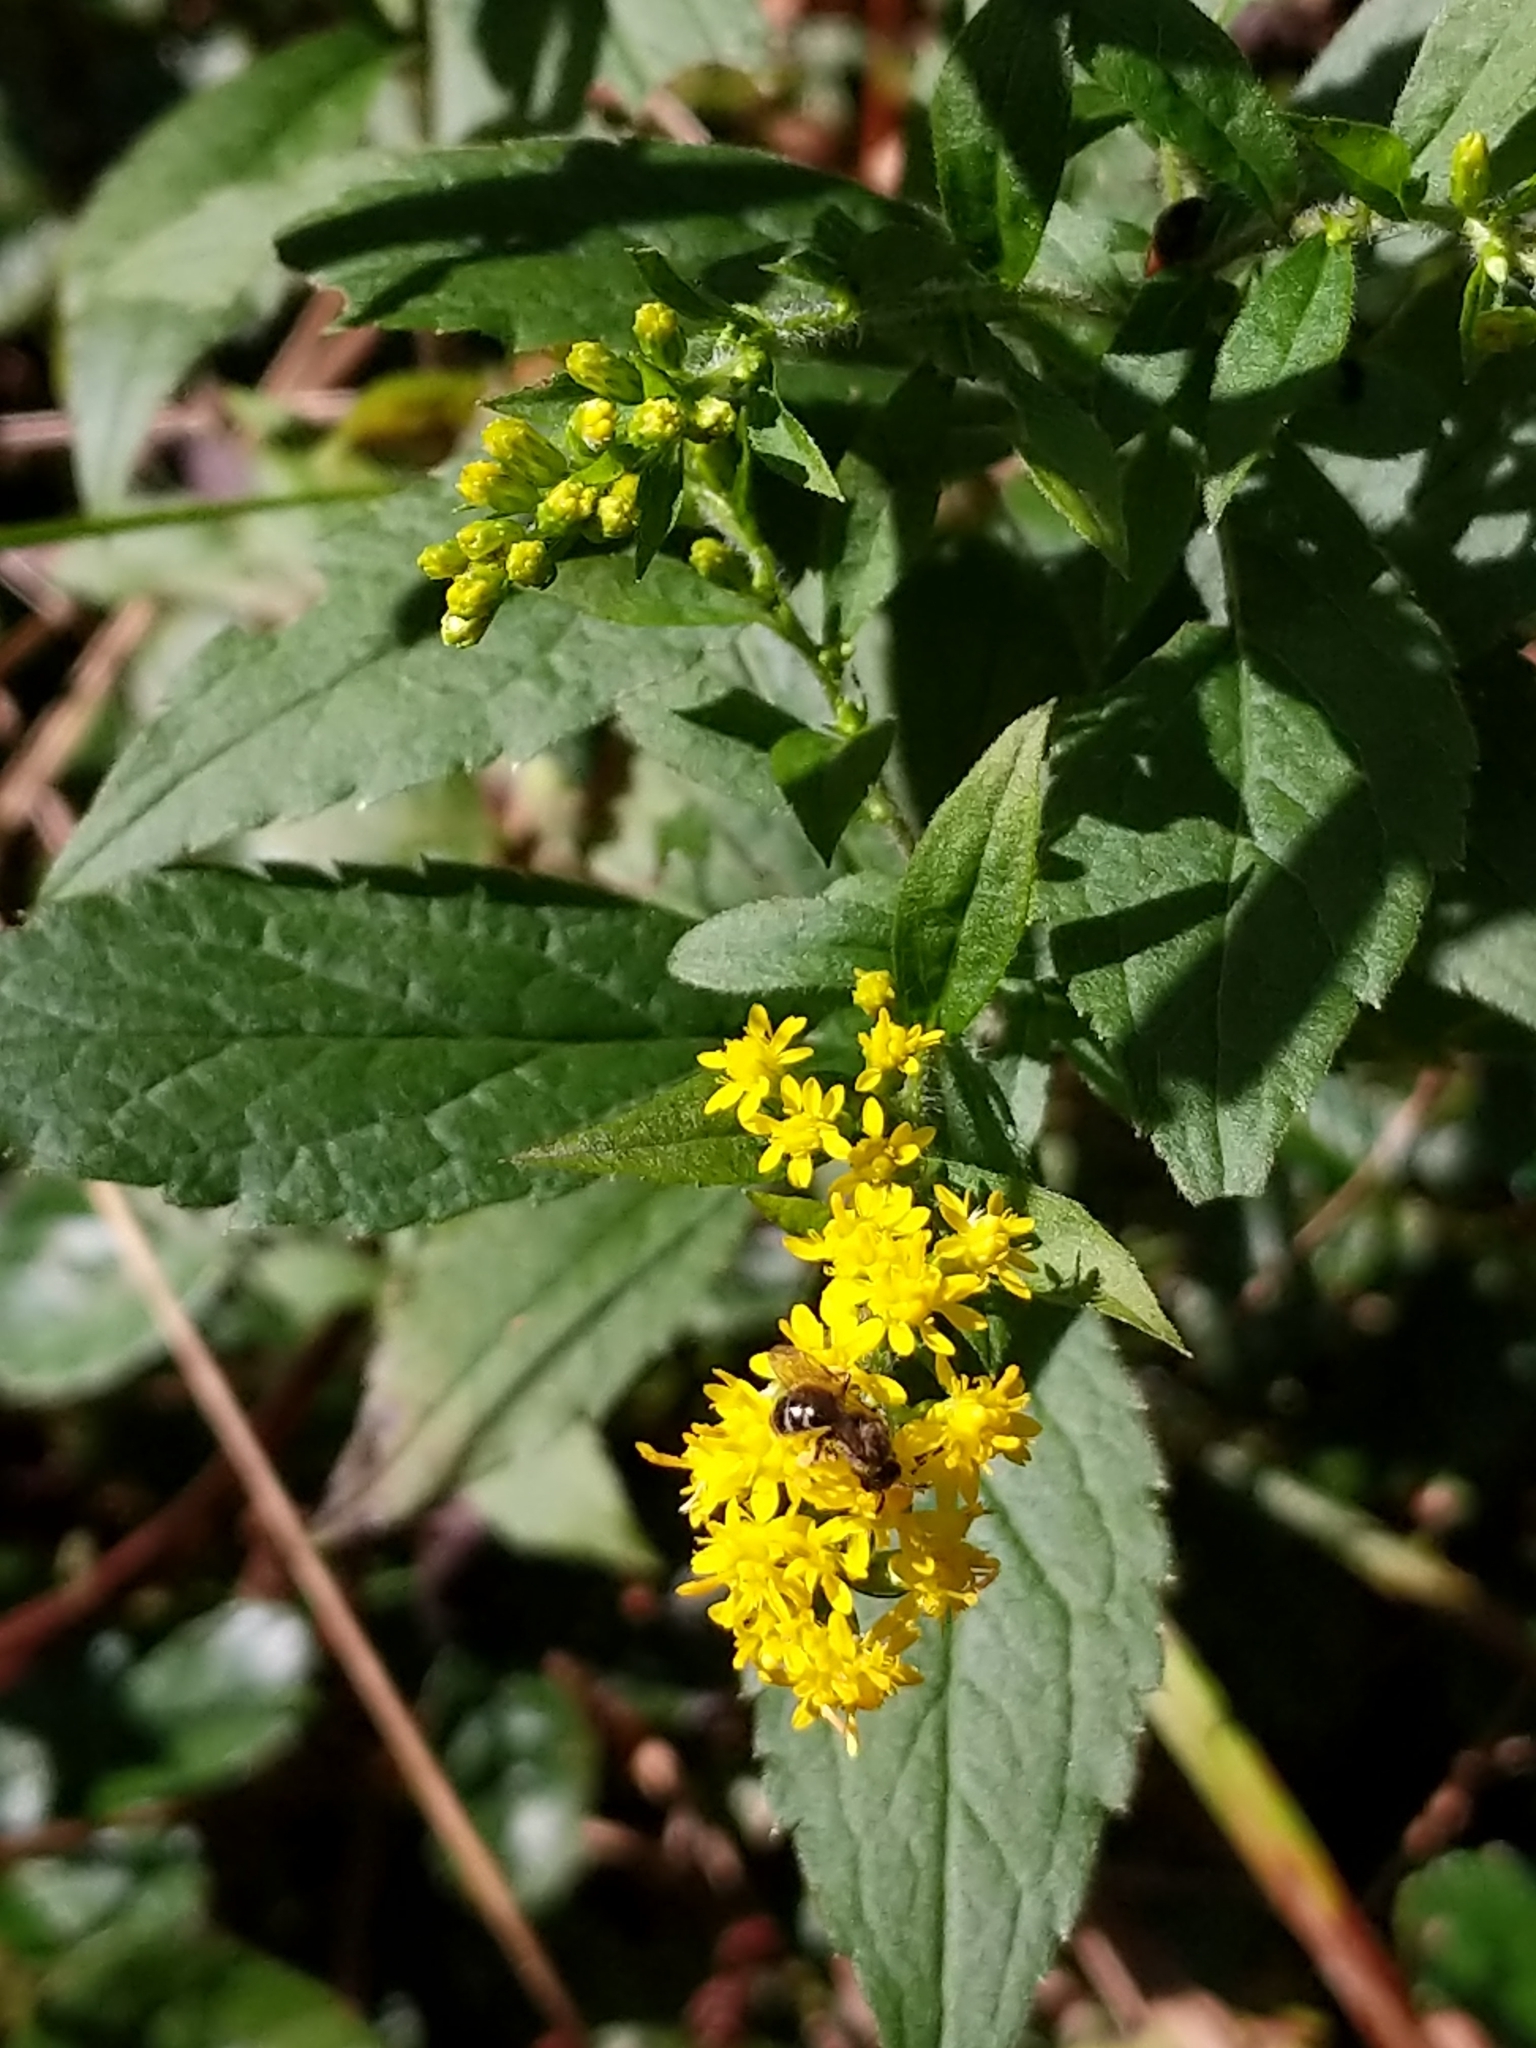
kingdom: Plantae
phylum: Tracheophyta
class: Magnoliopsida
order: Asterales
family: Asteraceae
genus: Solidago
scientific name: Solidago rugosa
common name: Rough-stemmed goldenrod
